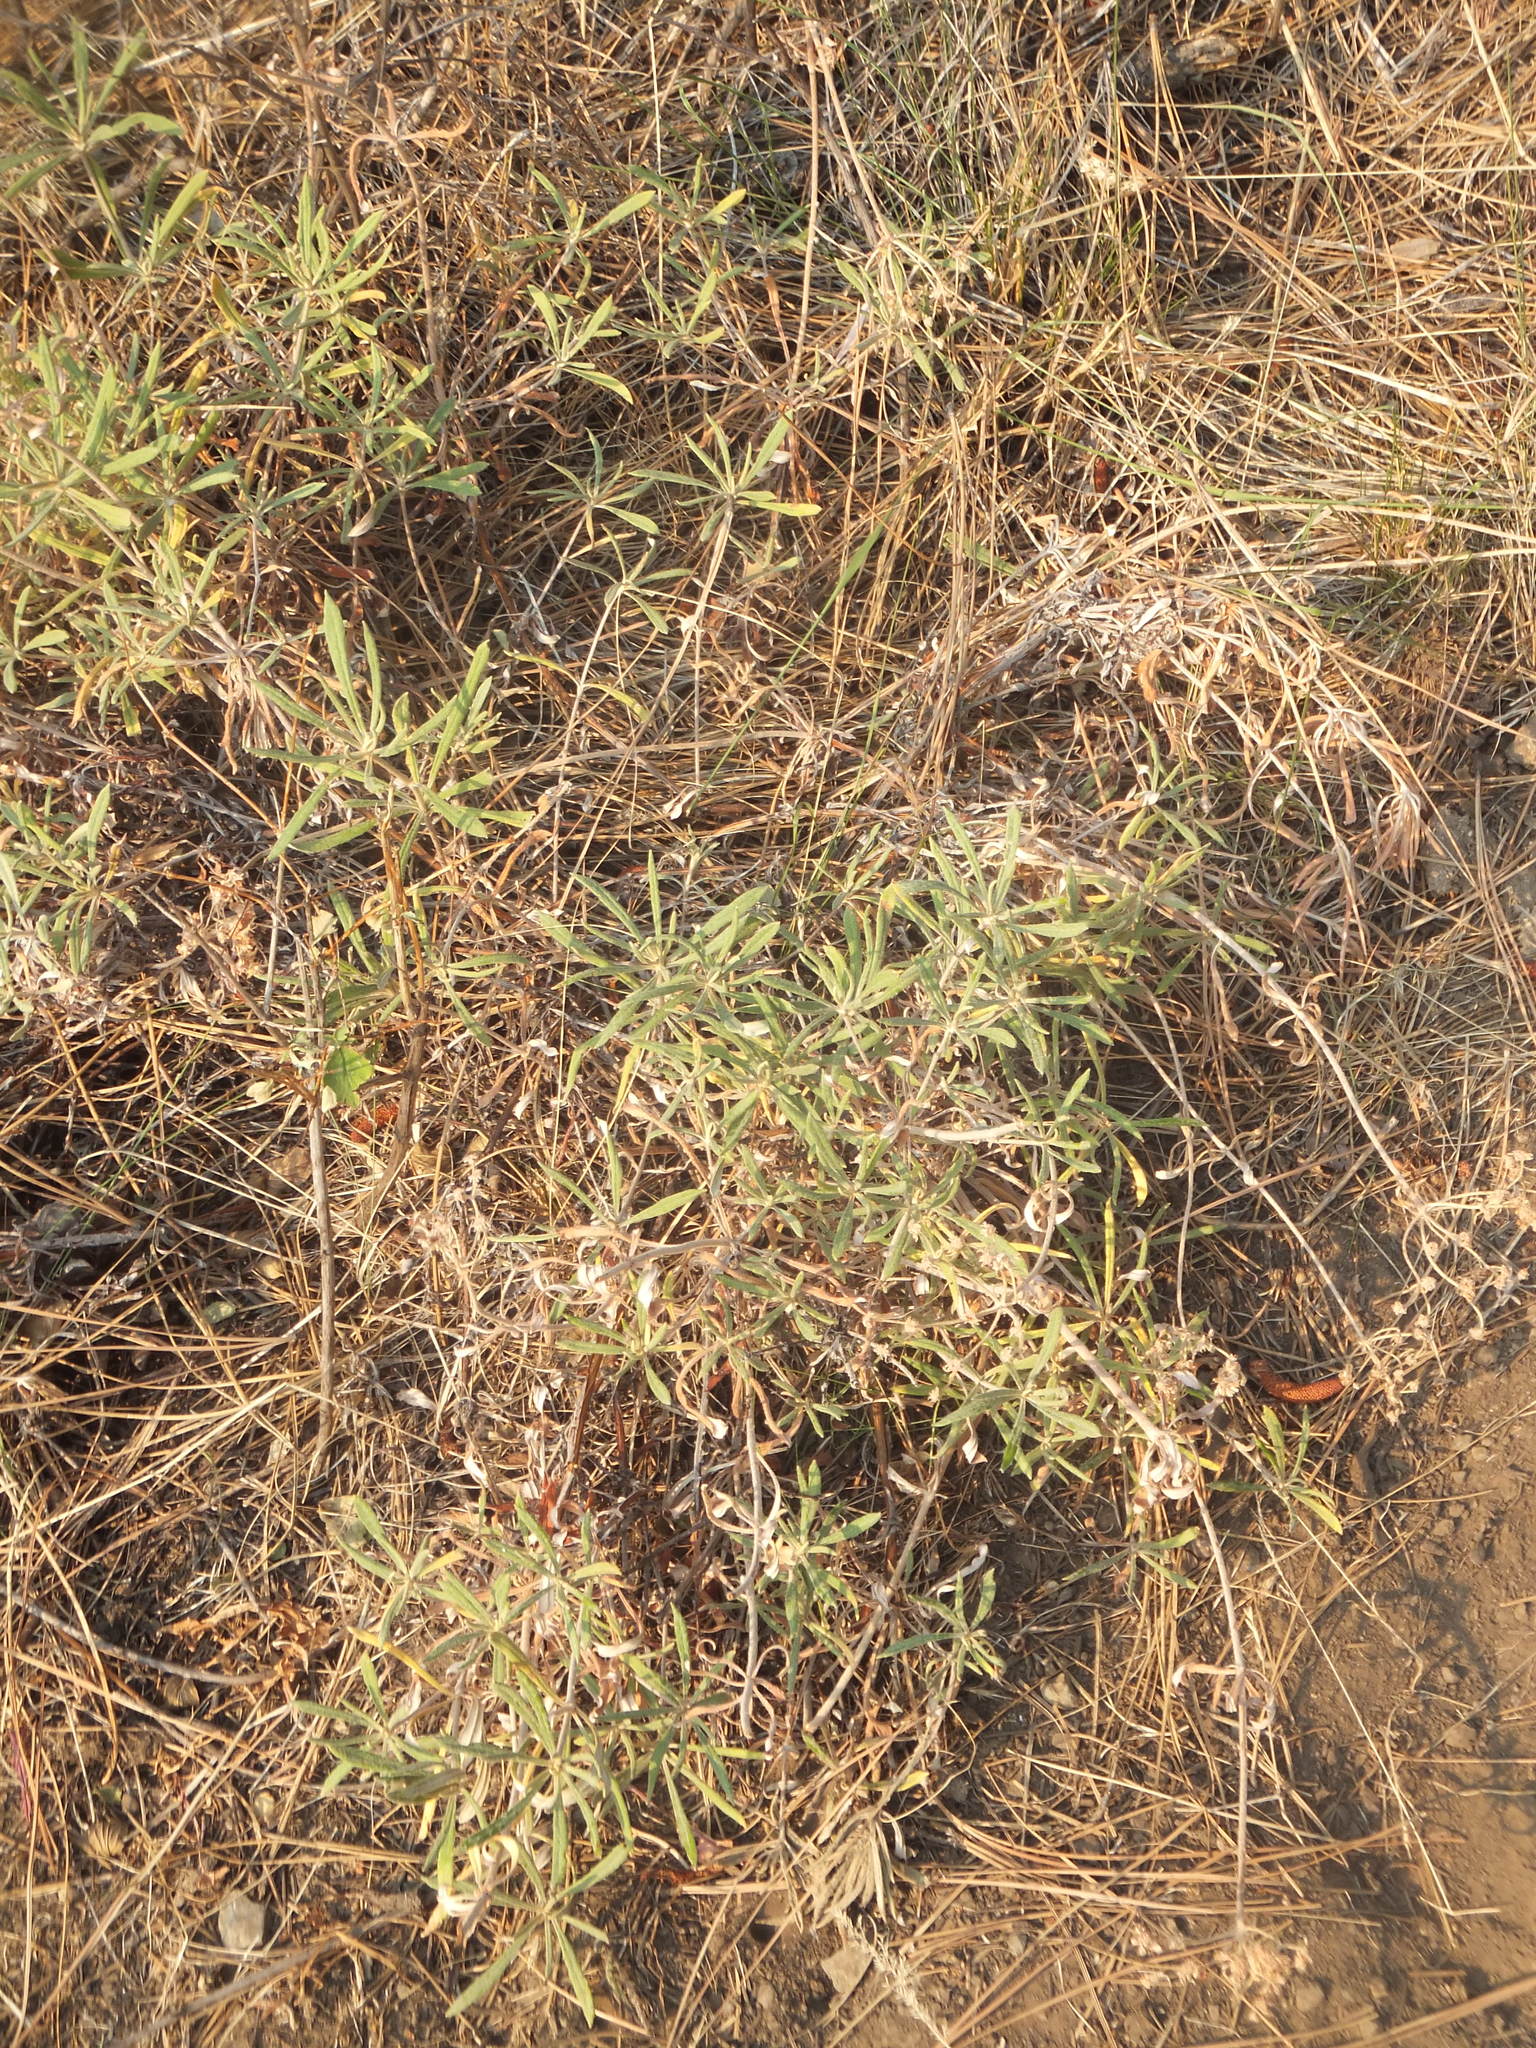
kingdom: Plantae
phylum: Tracheophyta
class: Magnoliopsida
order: Caryophyllales
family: Polygonaceae
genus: Eriogonum
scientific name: Eriogonum heracleoides
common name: Wyeth's buckwheat
